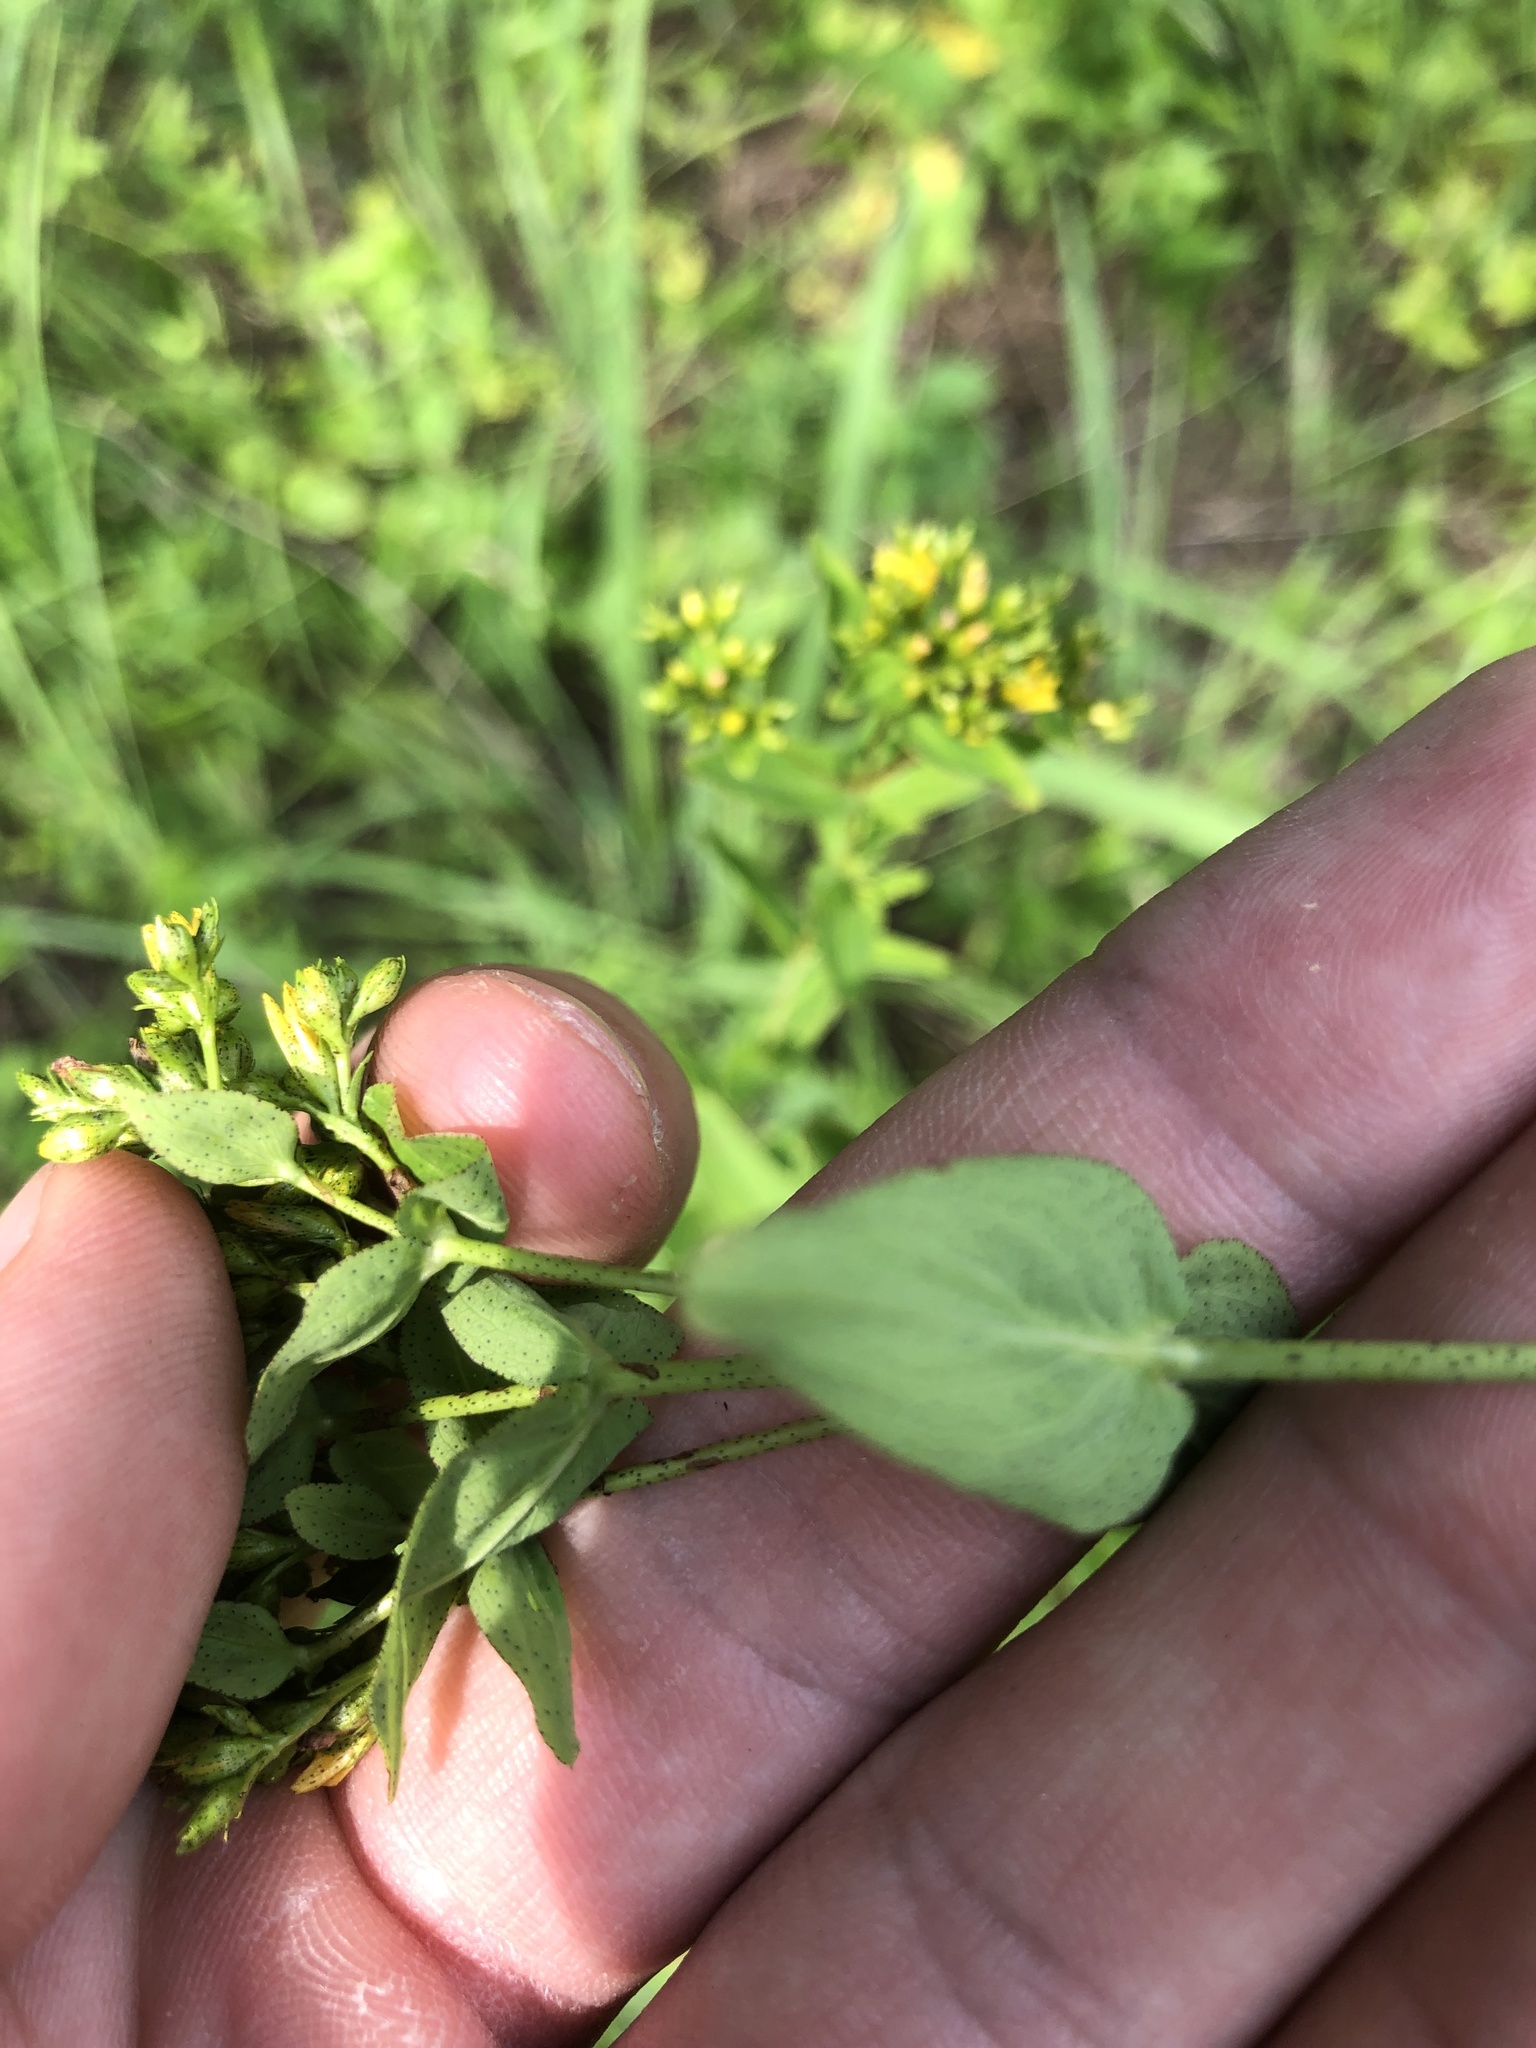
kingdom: Plantae
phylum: Tracheophyta
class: Magnoliopsida
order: Malpighiales
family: Hypericaceae
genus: Hypericum
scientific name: Hypericum punctatum
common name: Spotted st. john's-wort
